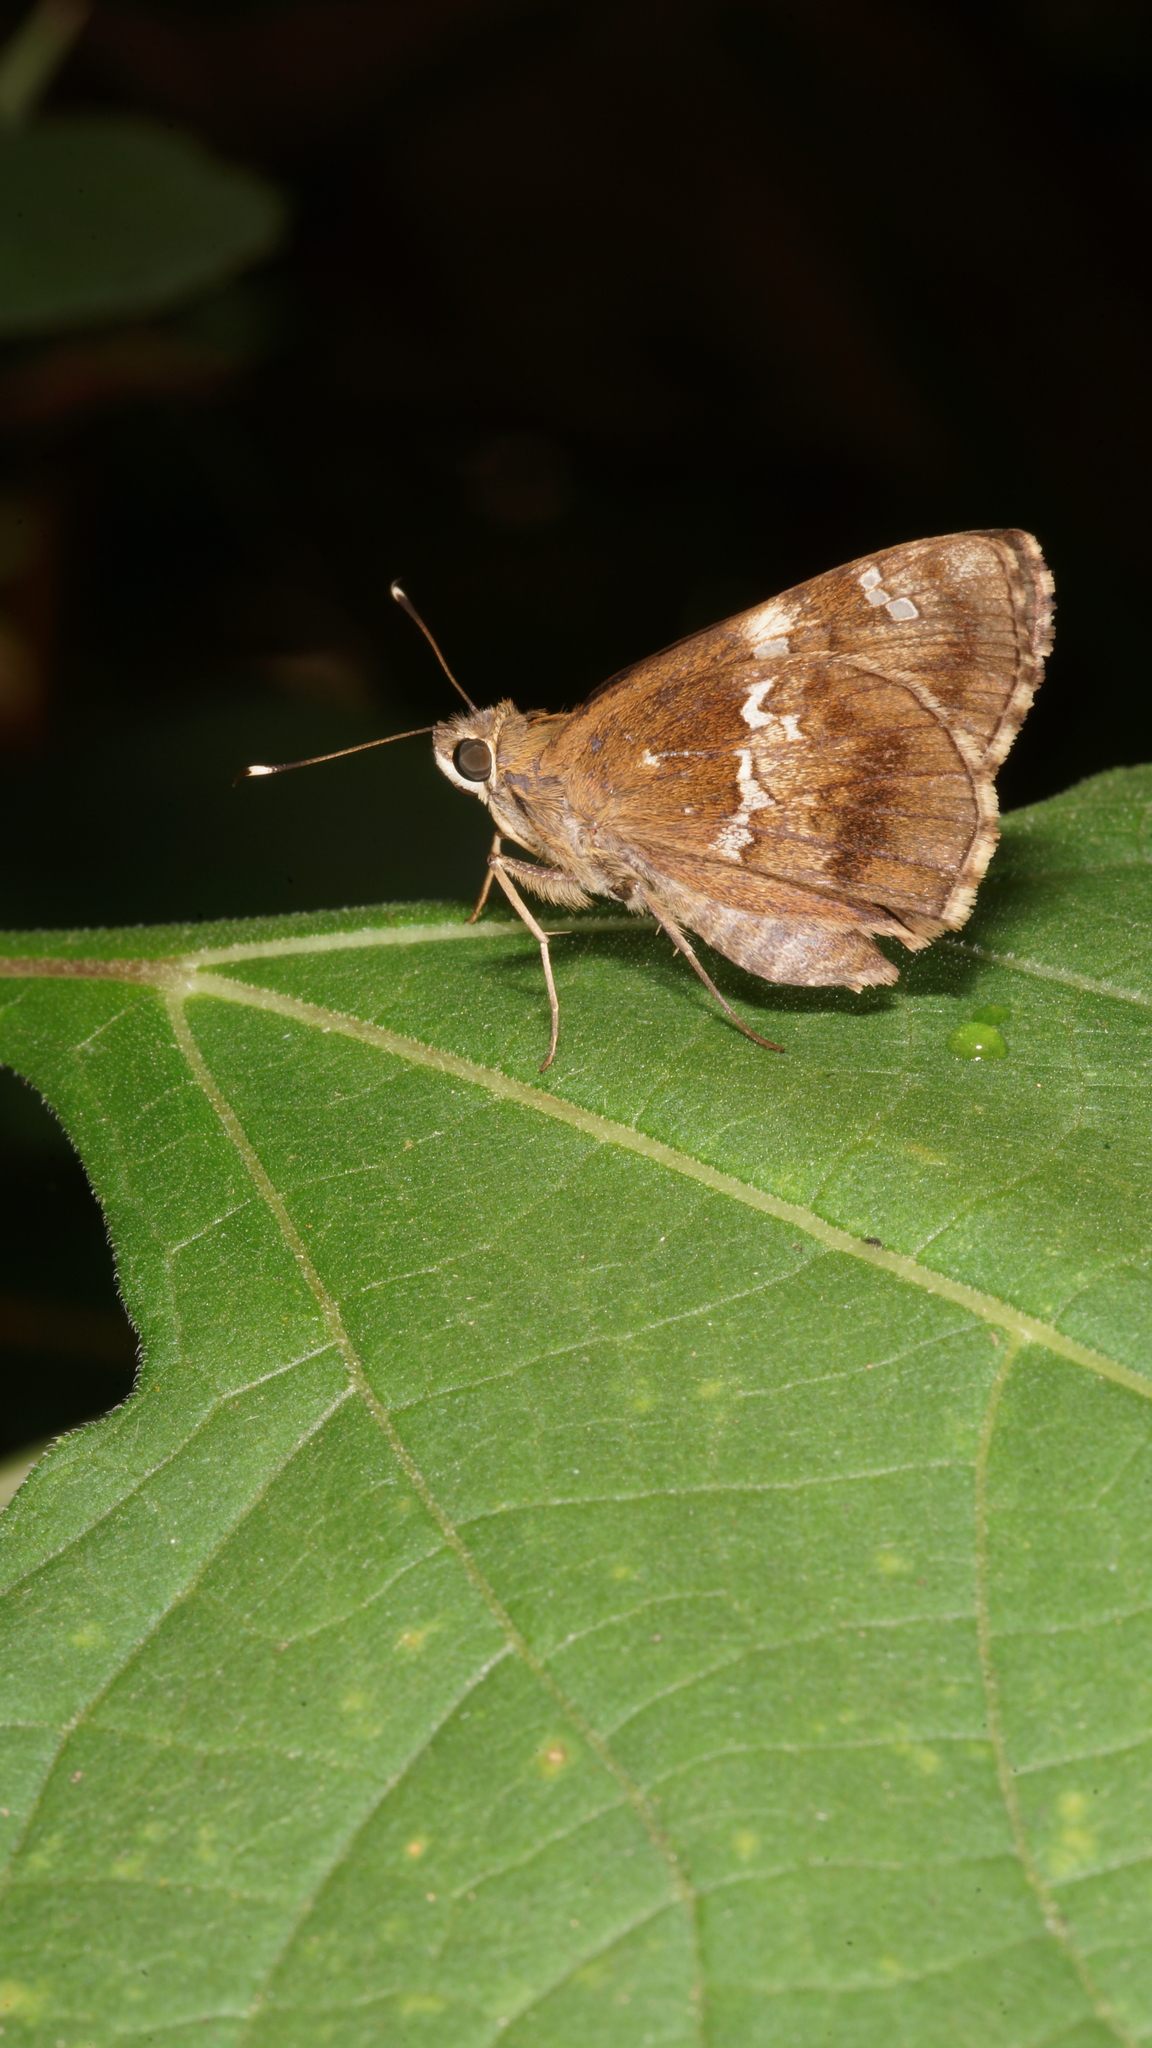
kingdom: Animalia
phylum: Arthropoda
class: Insecta
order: Lepidoptera
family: Hesperiidae
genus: Hyarotis
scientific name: Hyarotis adrastus
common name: Tree flitter
